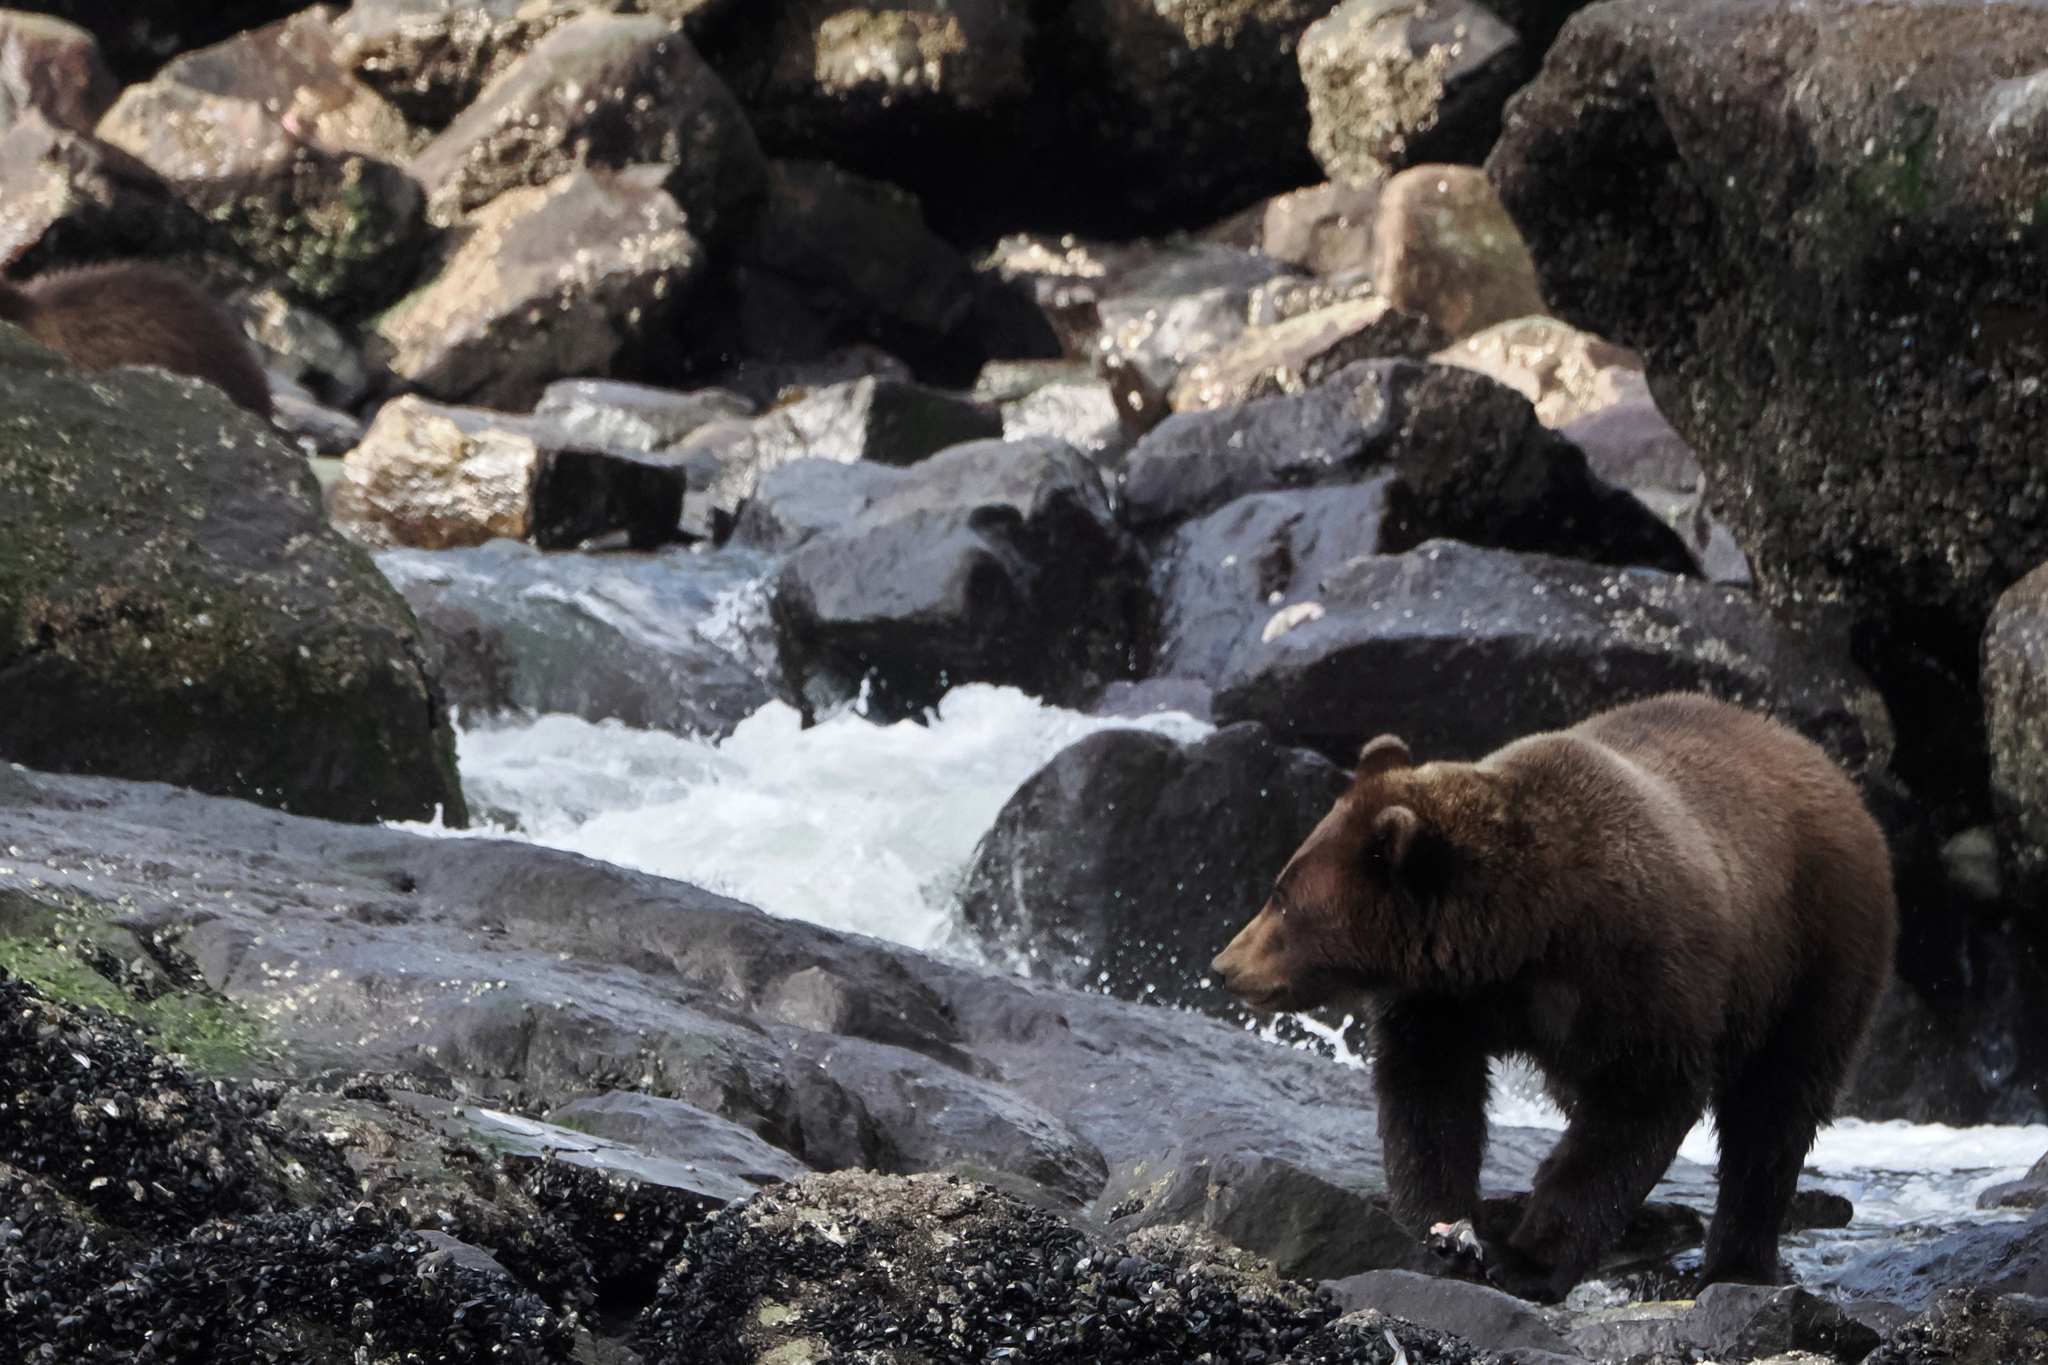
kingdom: Animalia
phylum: Chordata
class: Mammalia
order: Carnivora
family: Ursidae
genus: Ursus
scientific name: Ursus arctos
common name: Brown bear
